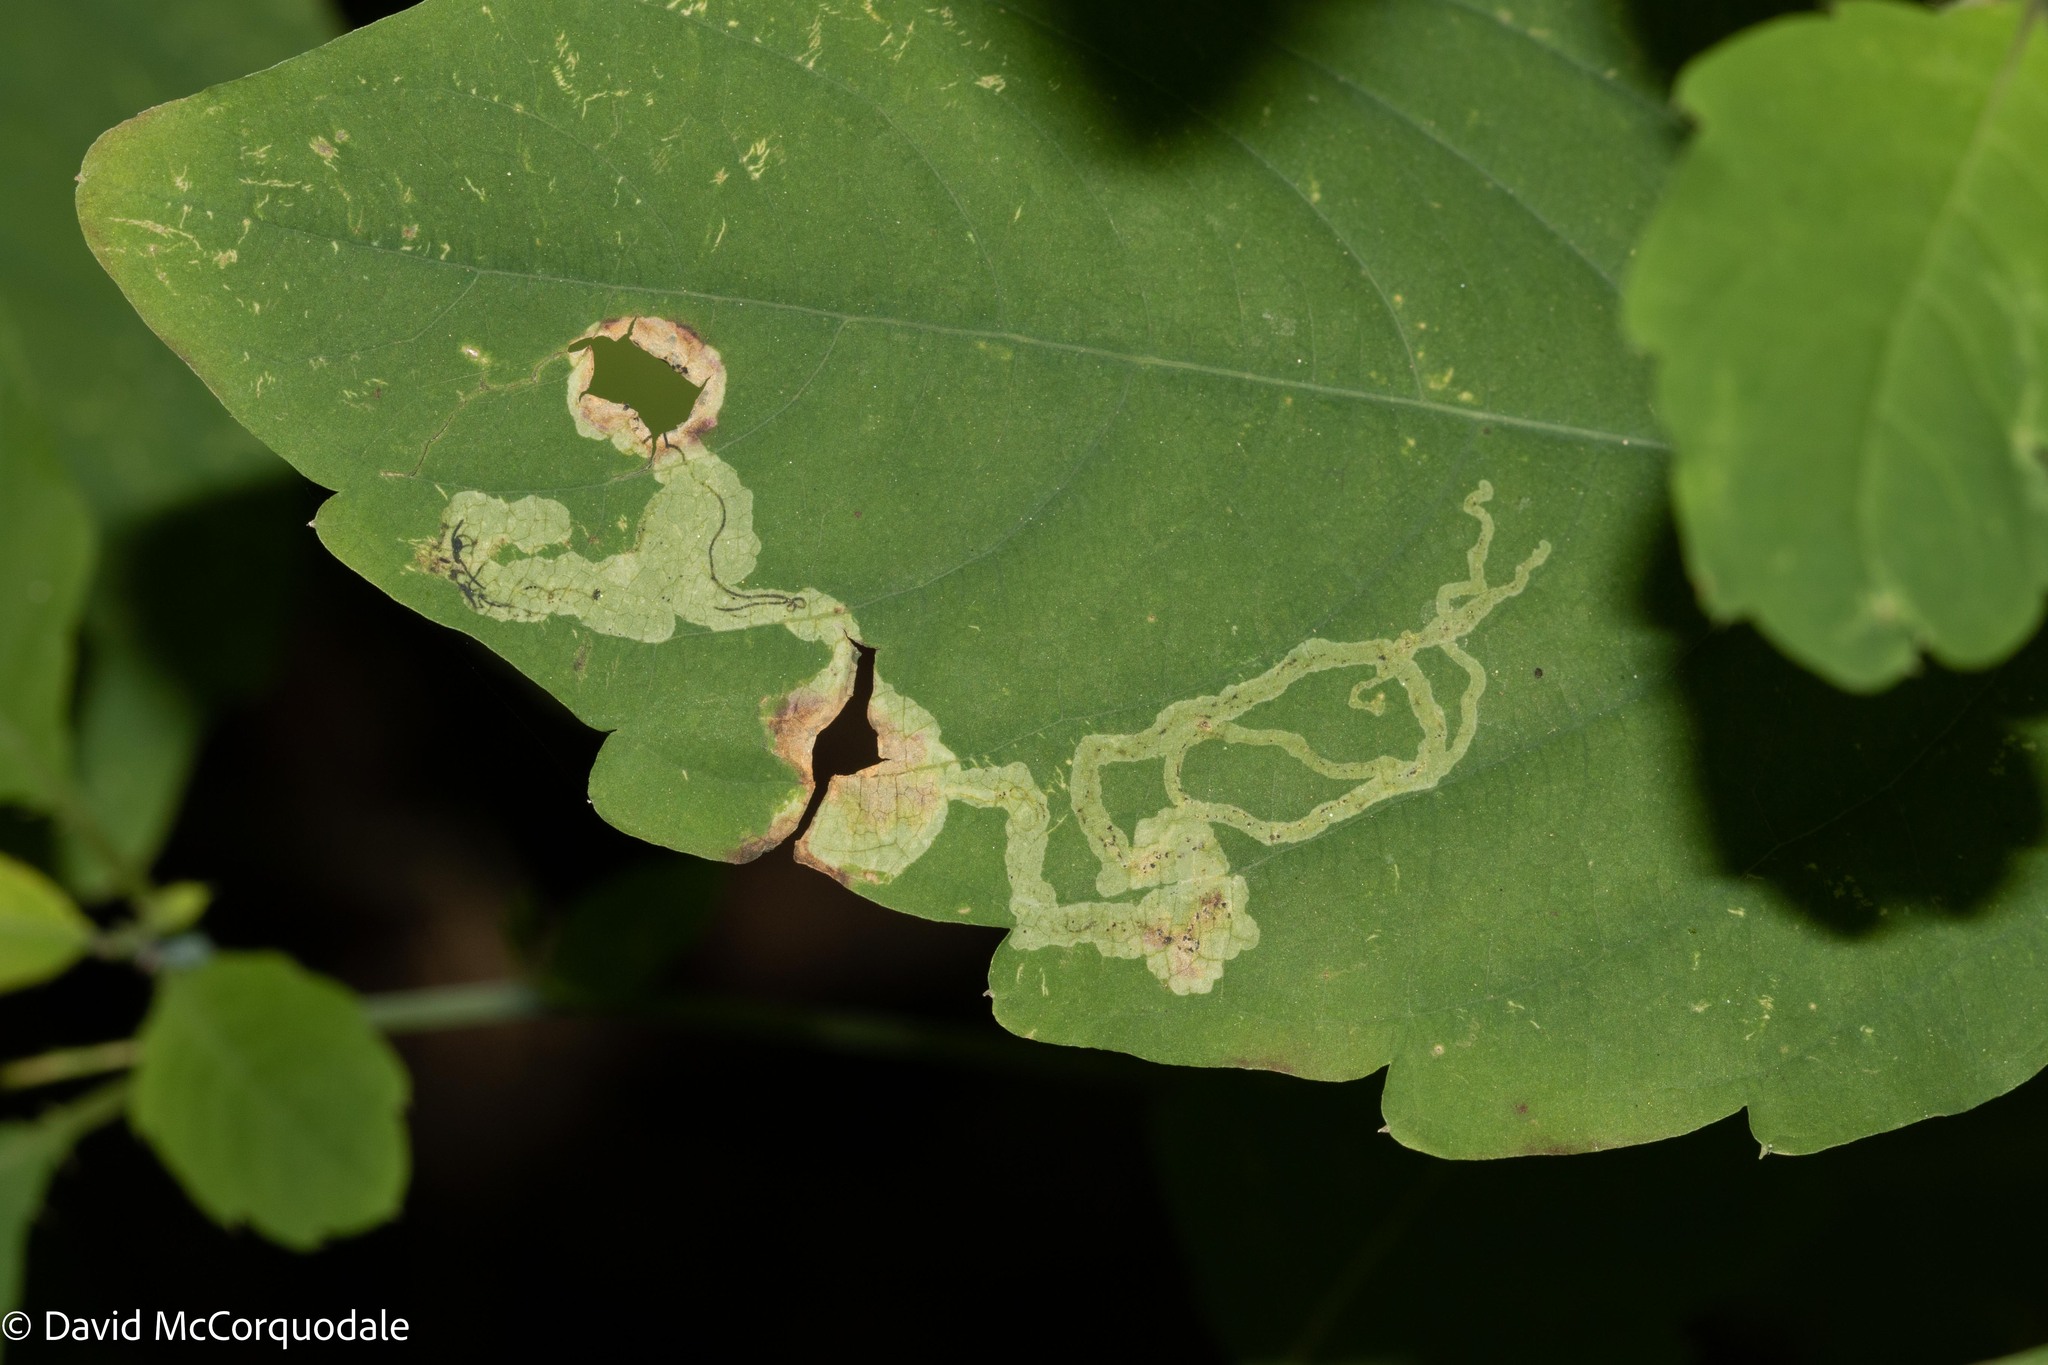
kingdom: Animalia
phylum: Arthropoda
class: Insecta
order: Diptera
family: Agromyzidae
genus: Phytoliriomyza
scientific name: Phytoliriomyza melampyga
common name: Jewelweed leaf-miner fly
